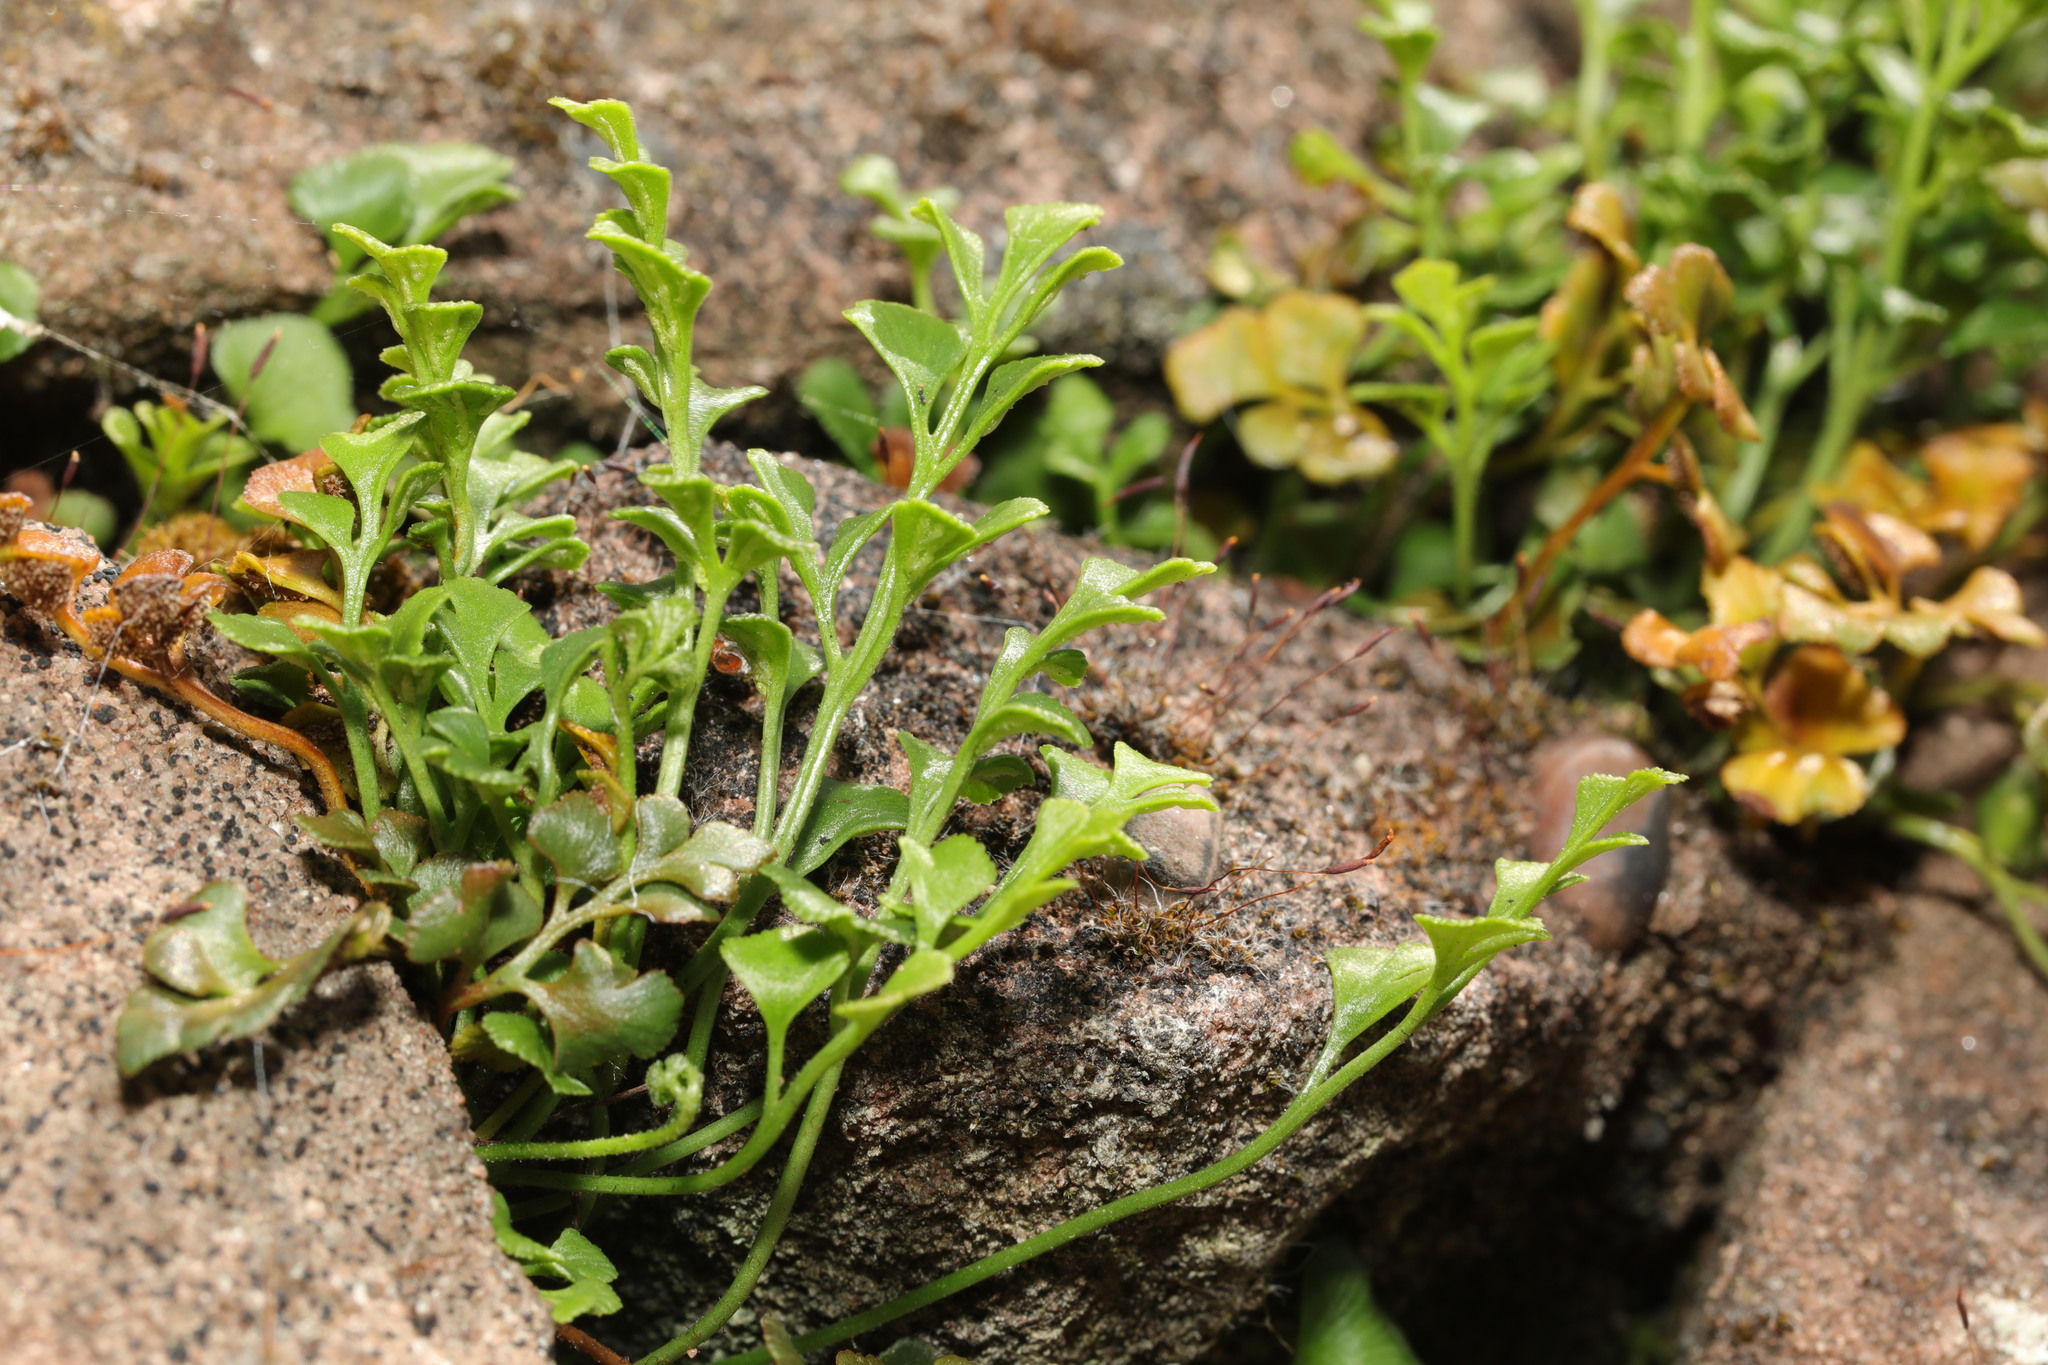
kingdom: Plantae
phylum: Tracheophyta
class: Polypodiopsida
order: Polypodiales
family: Aspleniaceae
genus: Asplenium
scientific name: Asplenium ruta-muraria
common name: Wall-rue
